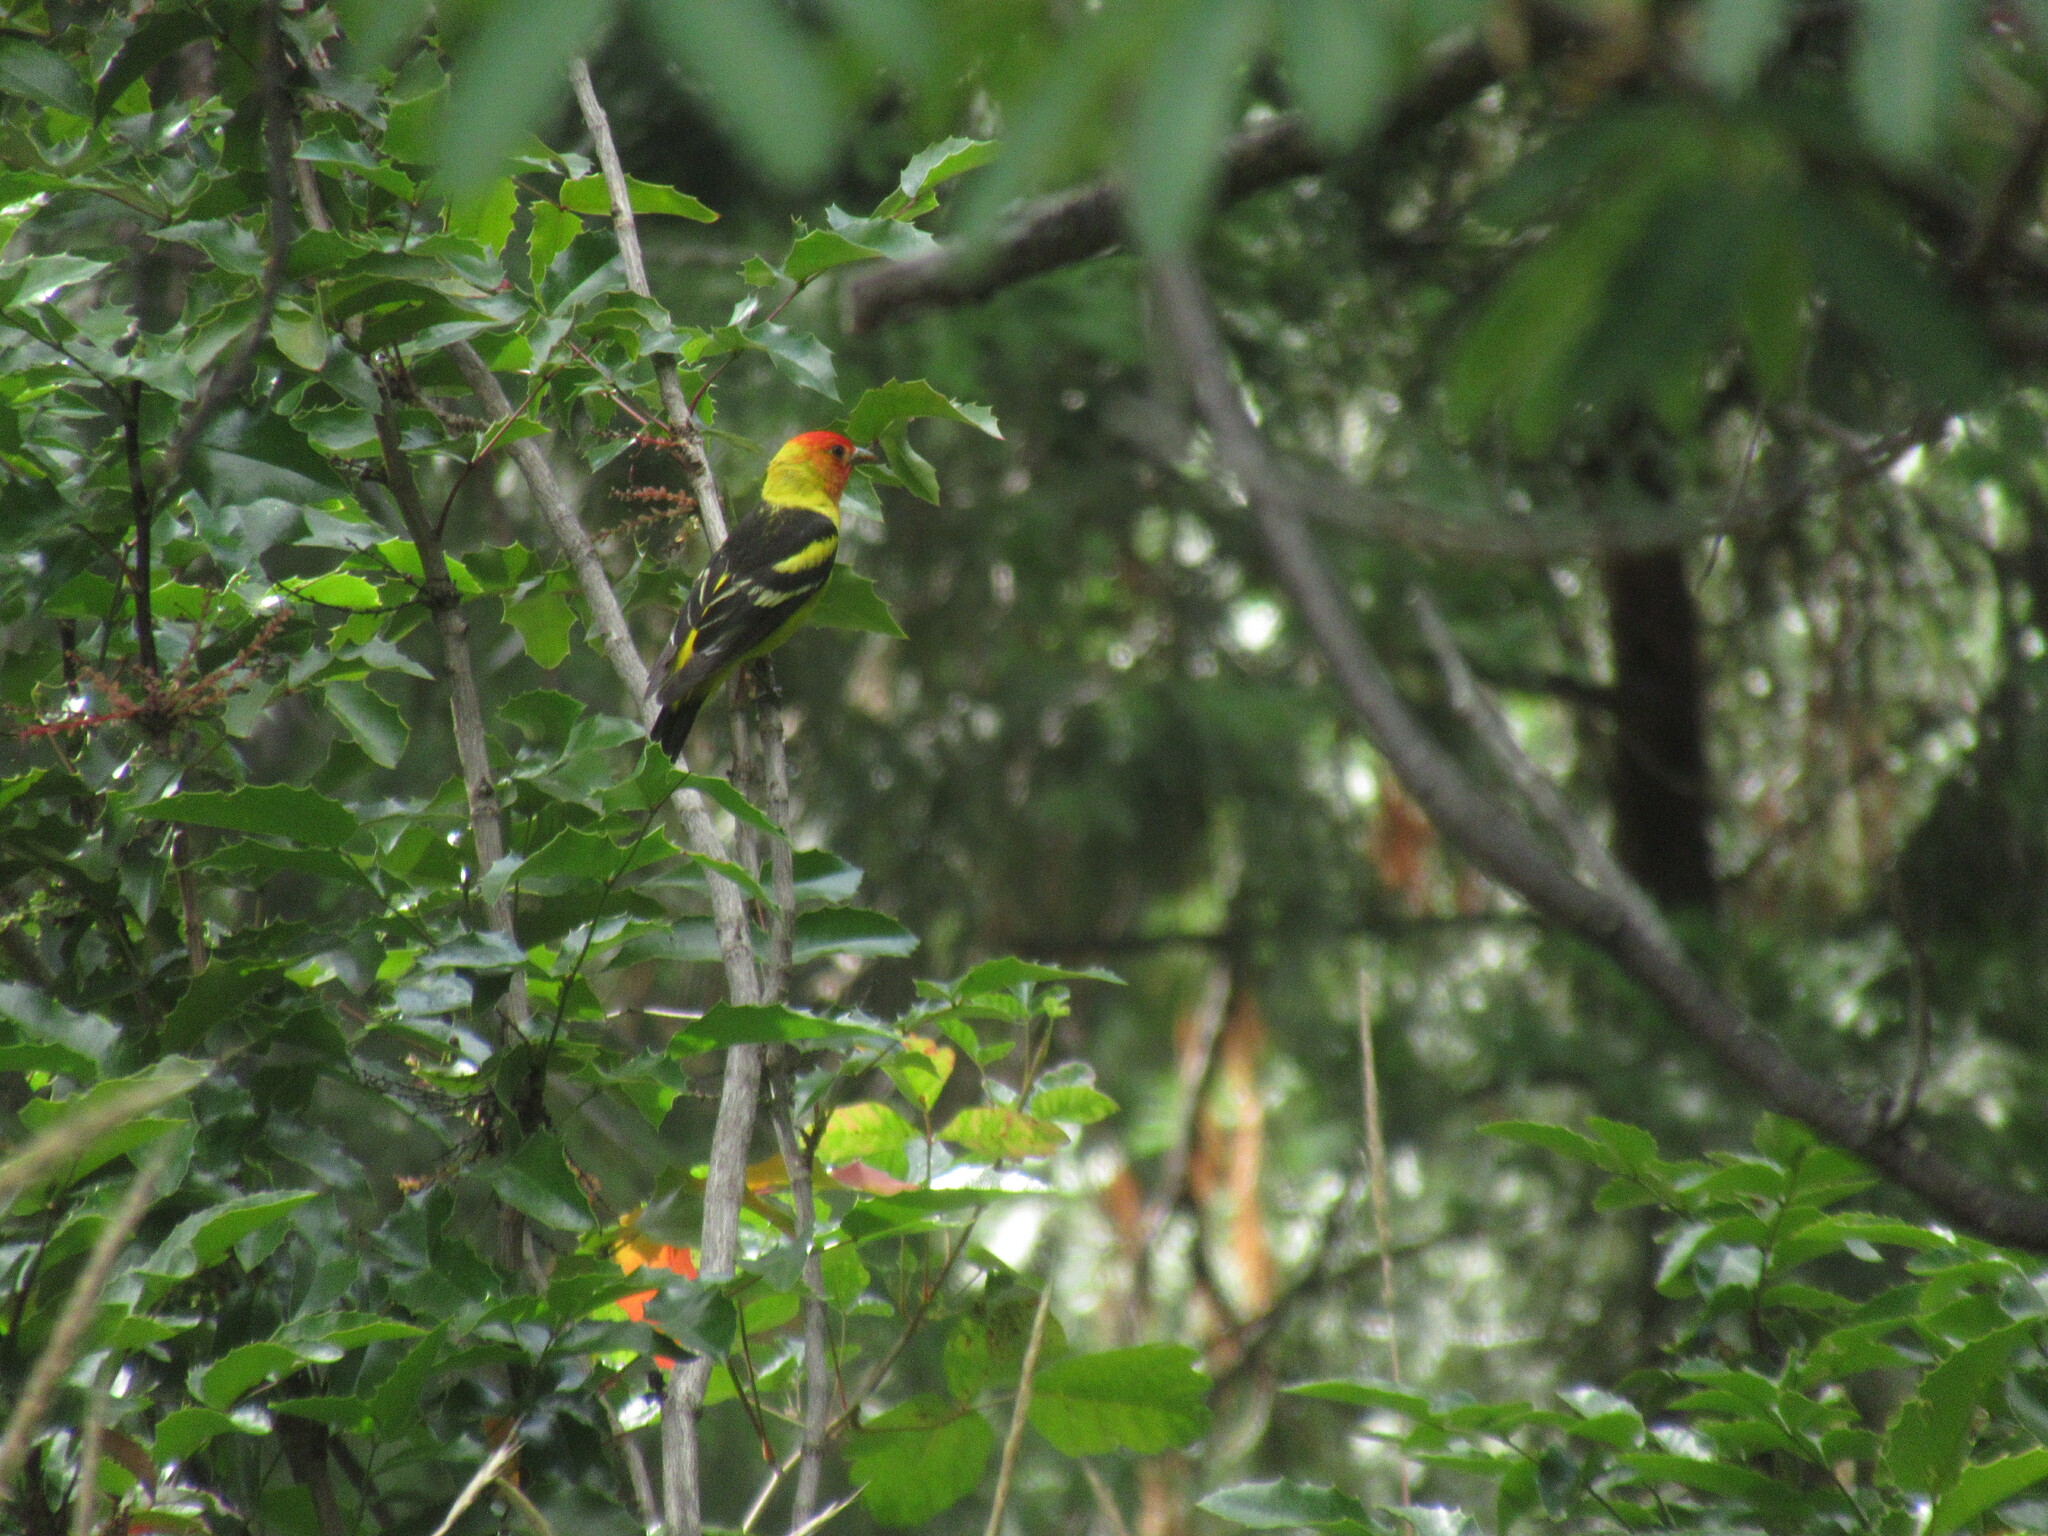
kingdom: Animalia
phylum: Chordata
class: Aves
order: Passeriformes
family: Cardinalidae
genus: Piranga
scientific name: Piranga ludoviciana
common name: Western tanager
